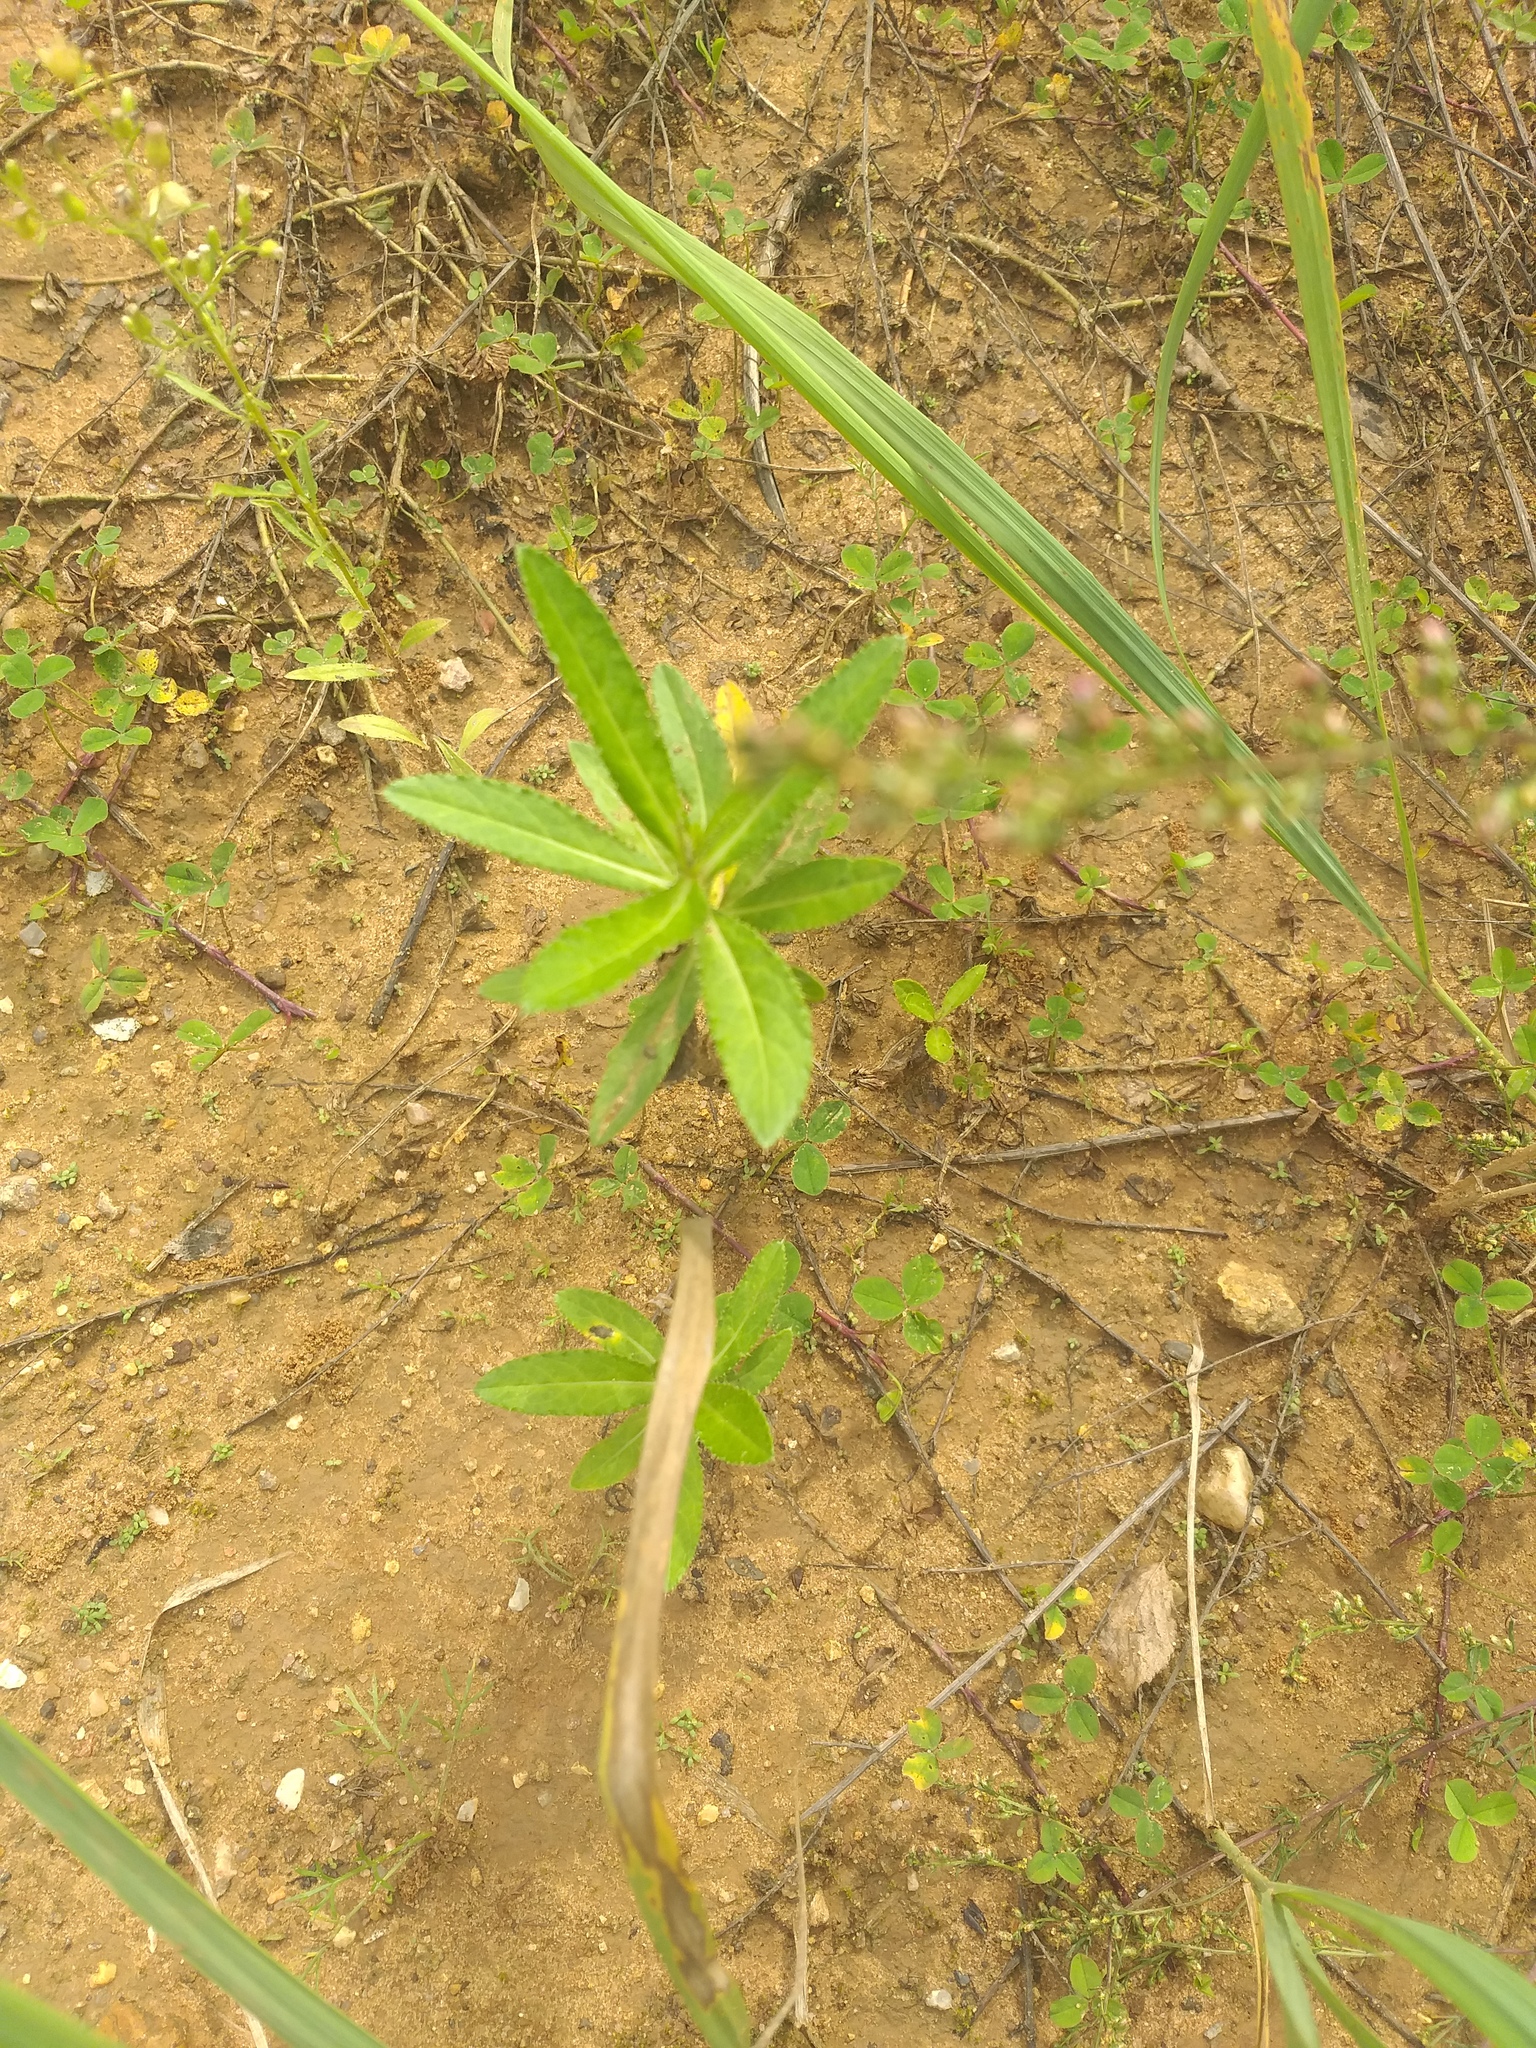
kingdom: Plantae
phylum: Tracheophyta
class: Magnoliopsida
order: Asterales
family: Asteraceae
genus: Cirsium
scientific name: Cirsium arvense
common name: Creeping thistle
